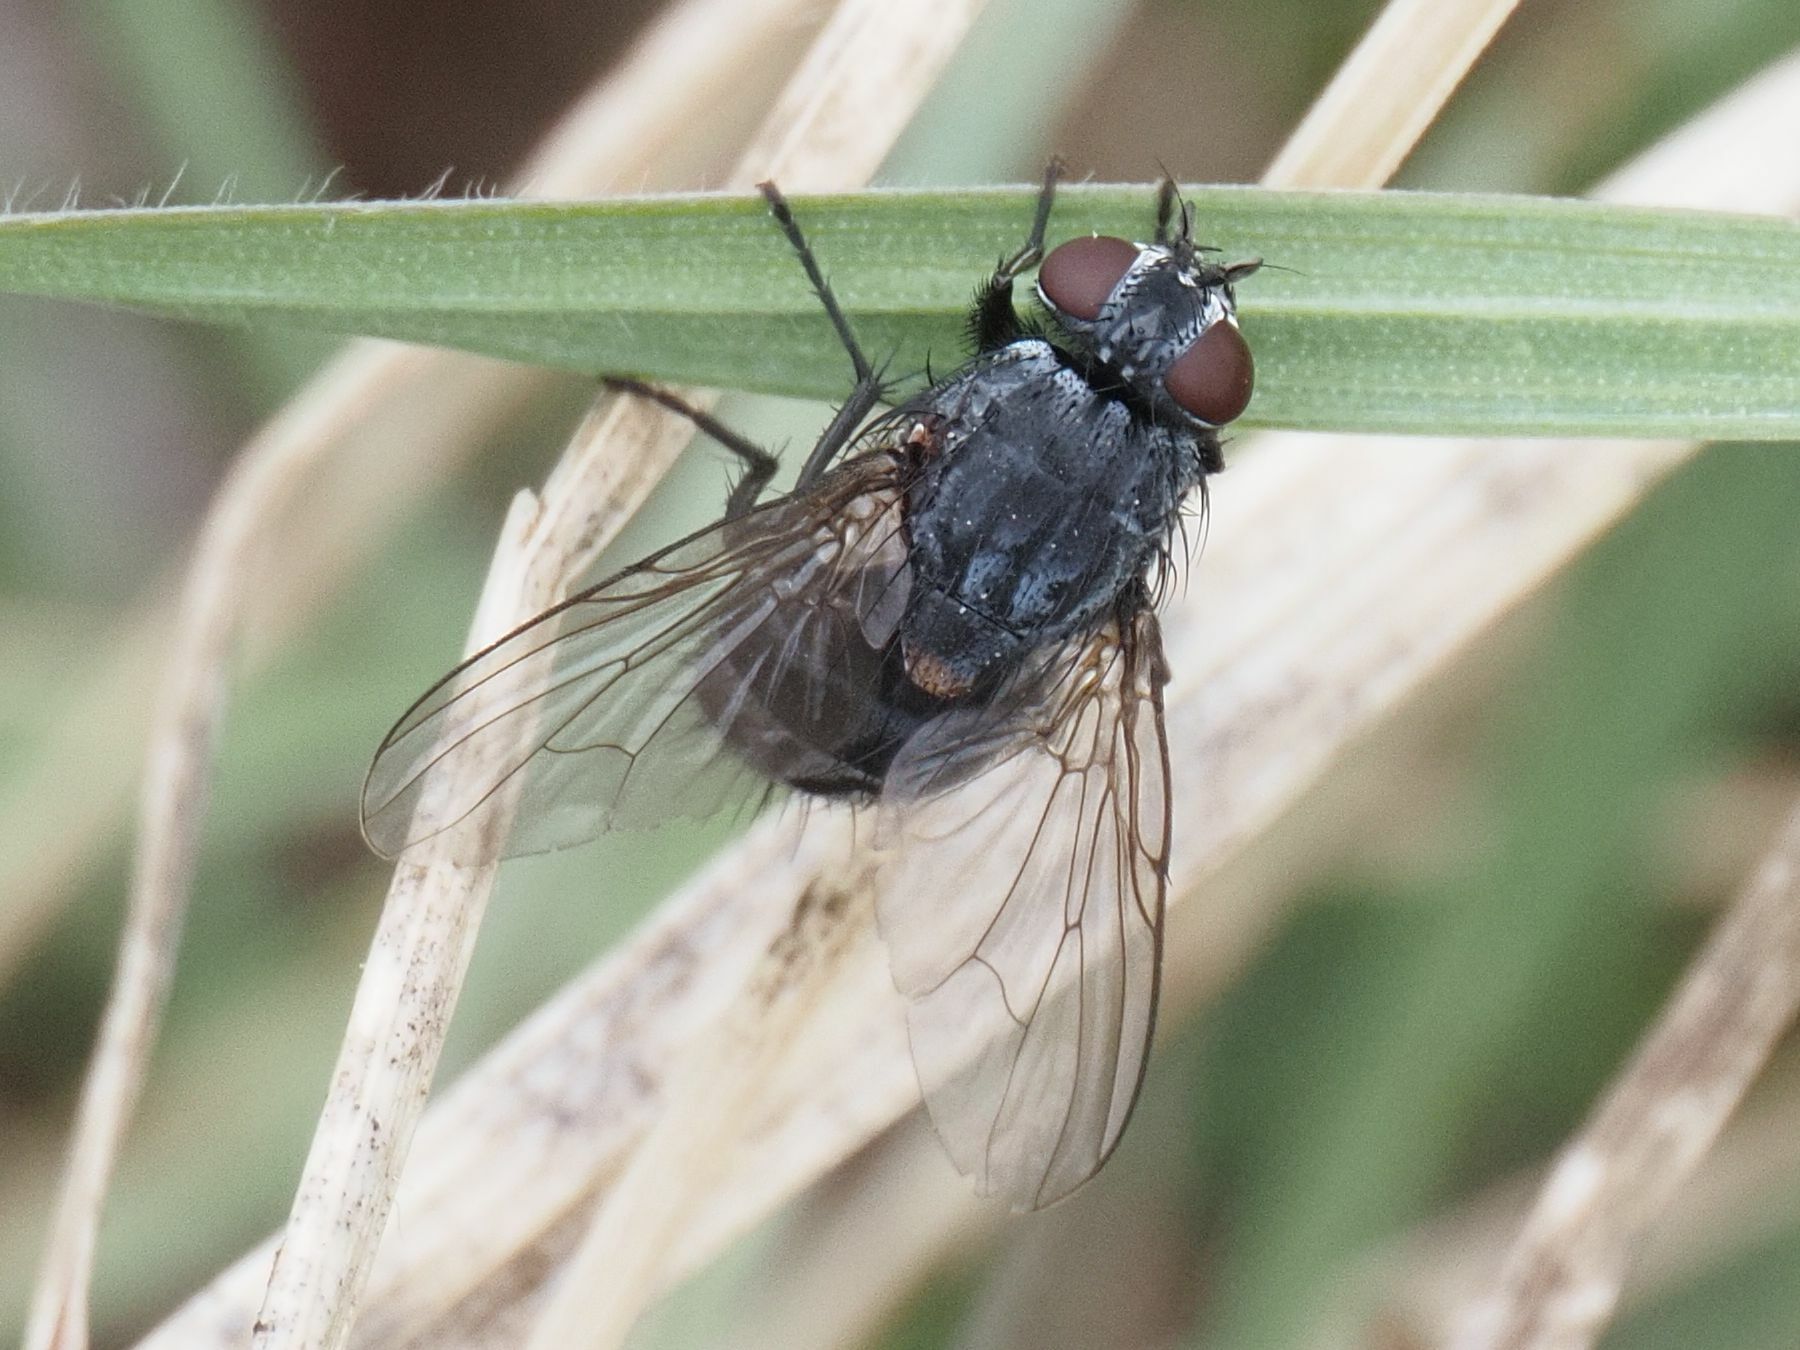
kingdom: Animalia
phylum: Arthropoda
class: Insecta
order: Diptera
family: Muscidae
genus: Muscina
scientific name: Muscina levida
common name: House fly
